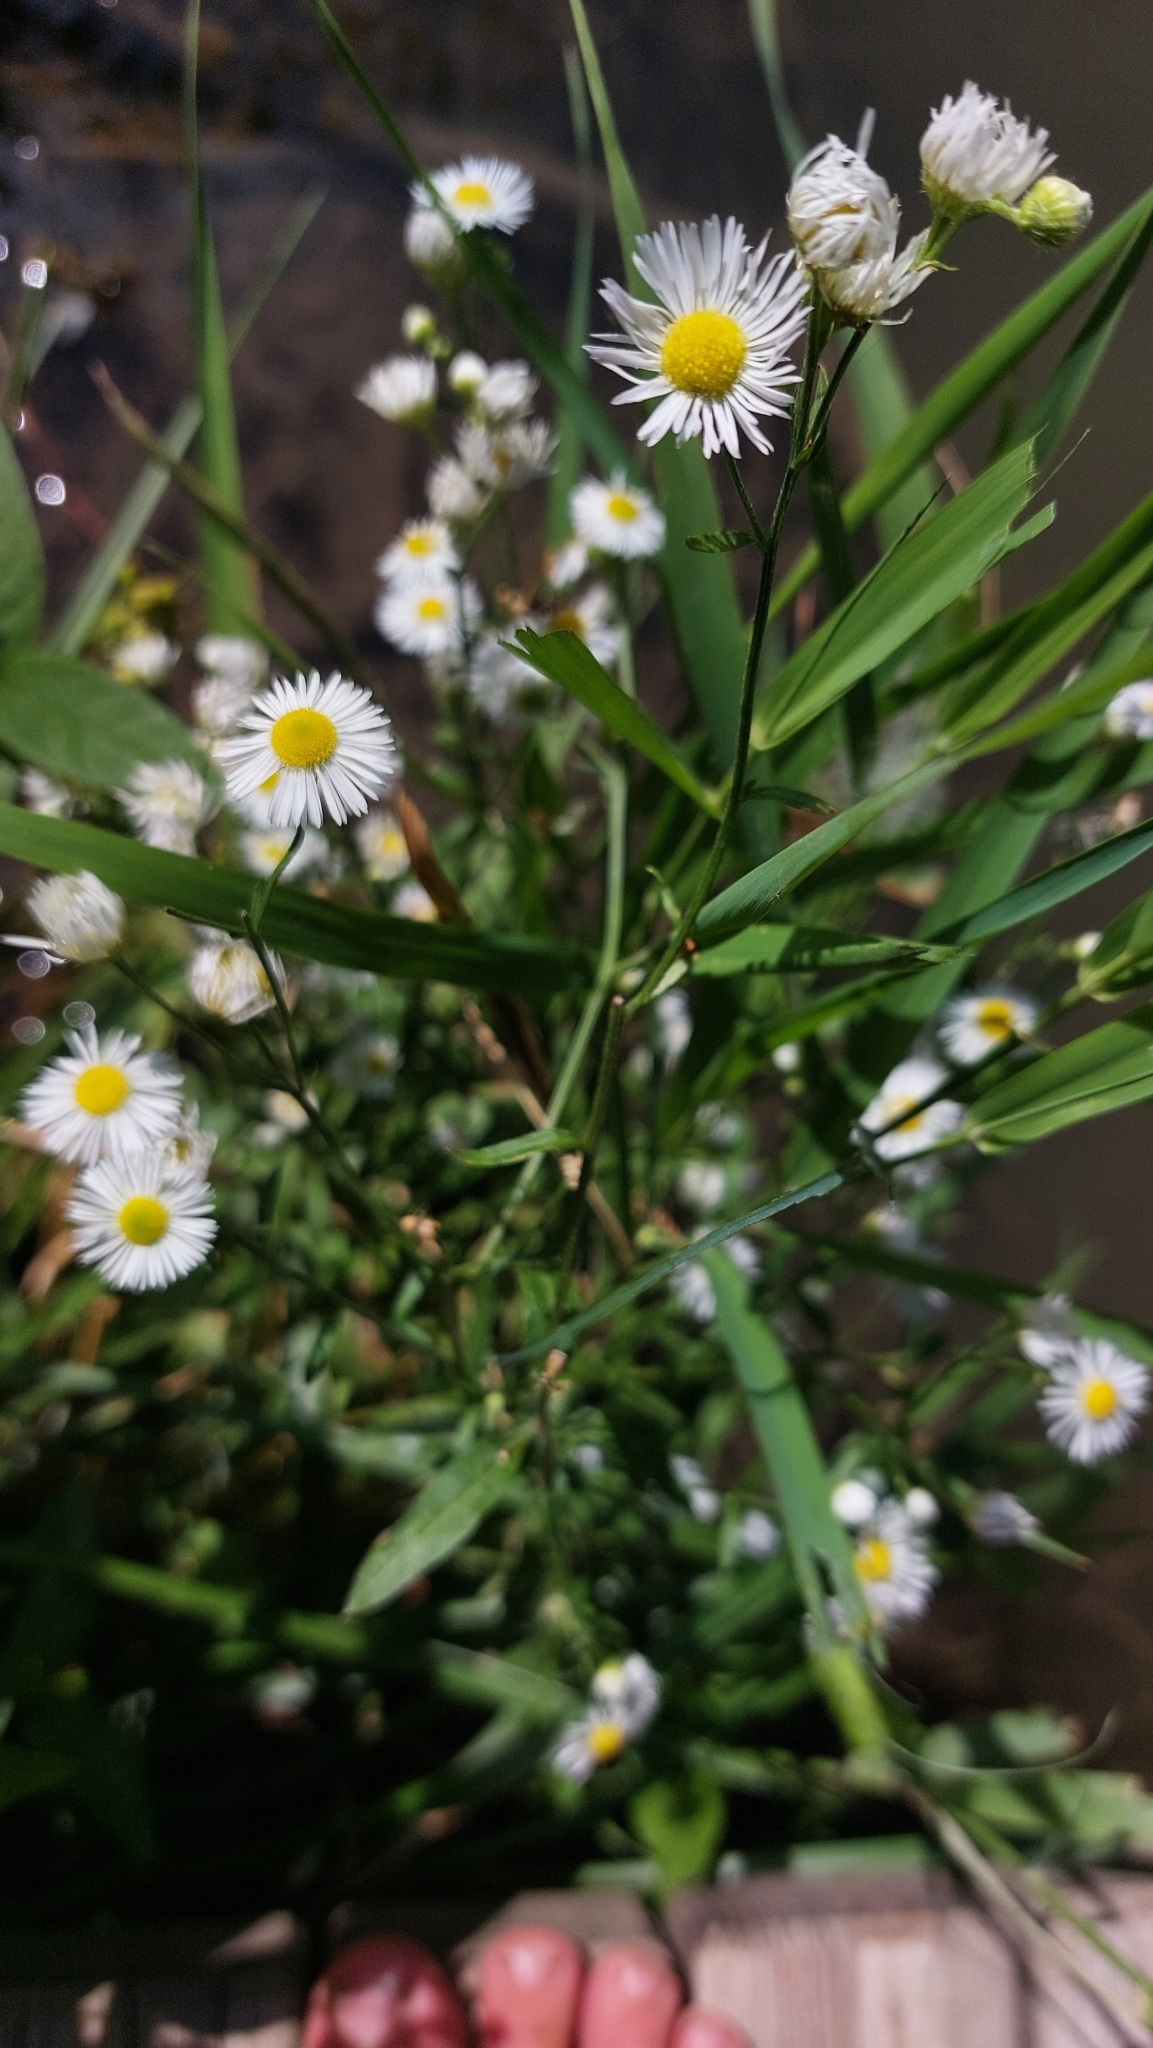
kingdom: Plantae
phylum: Tracheophyta
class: Magnoliopsida
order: Asterales
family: Asteraceae
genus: Erigeron
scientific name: Erigeron annuus
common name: Tall fleabane
